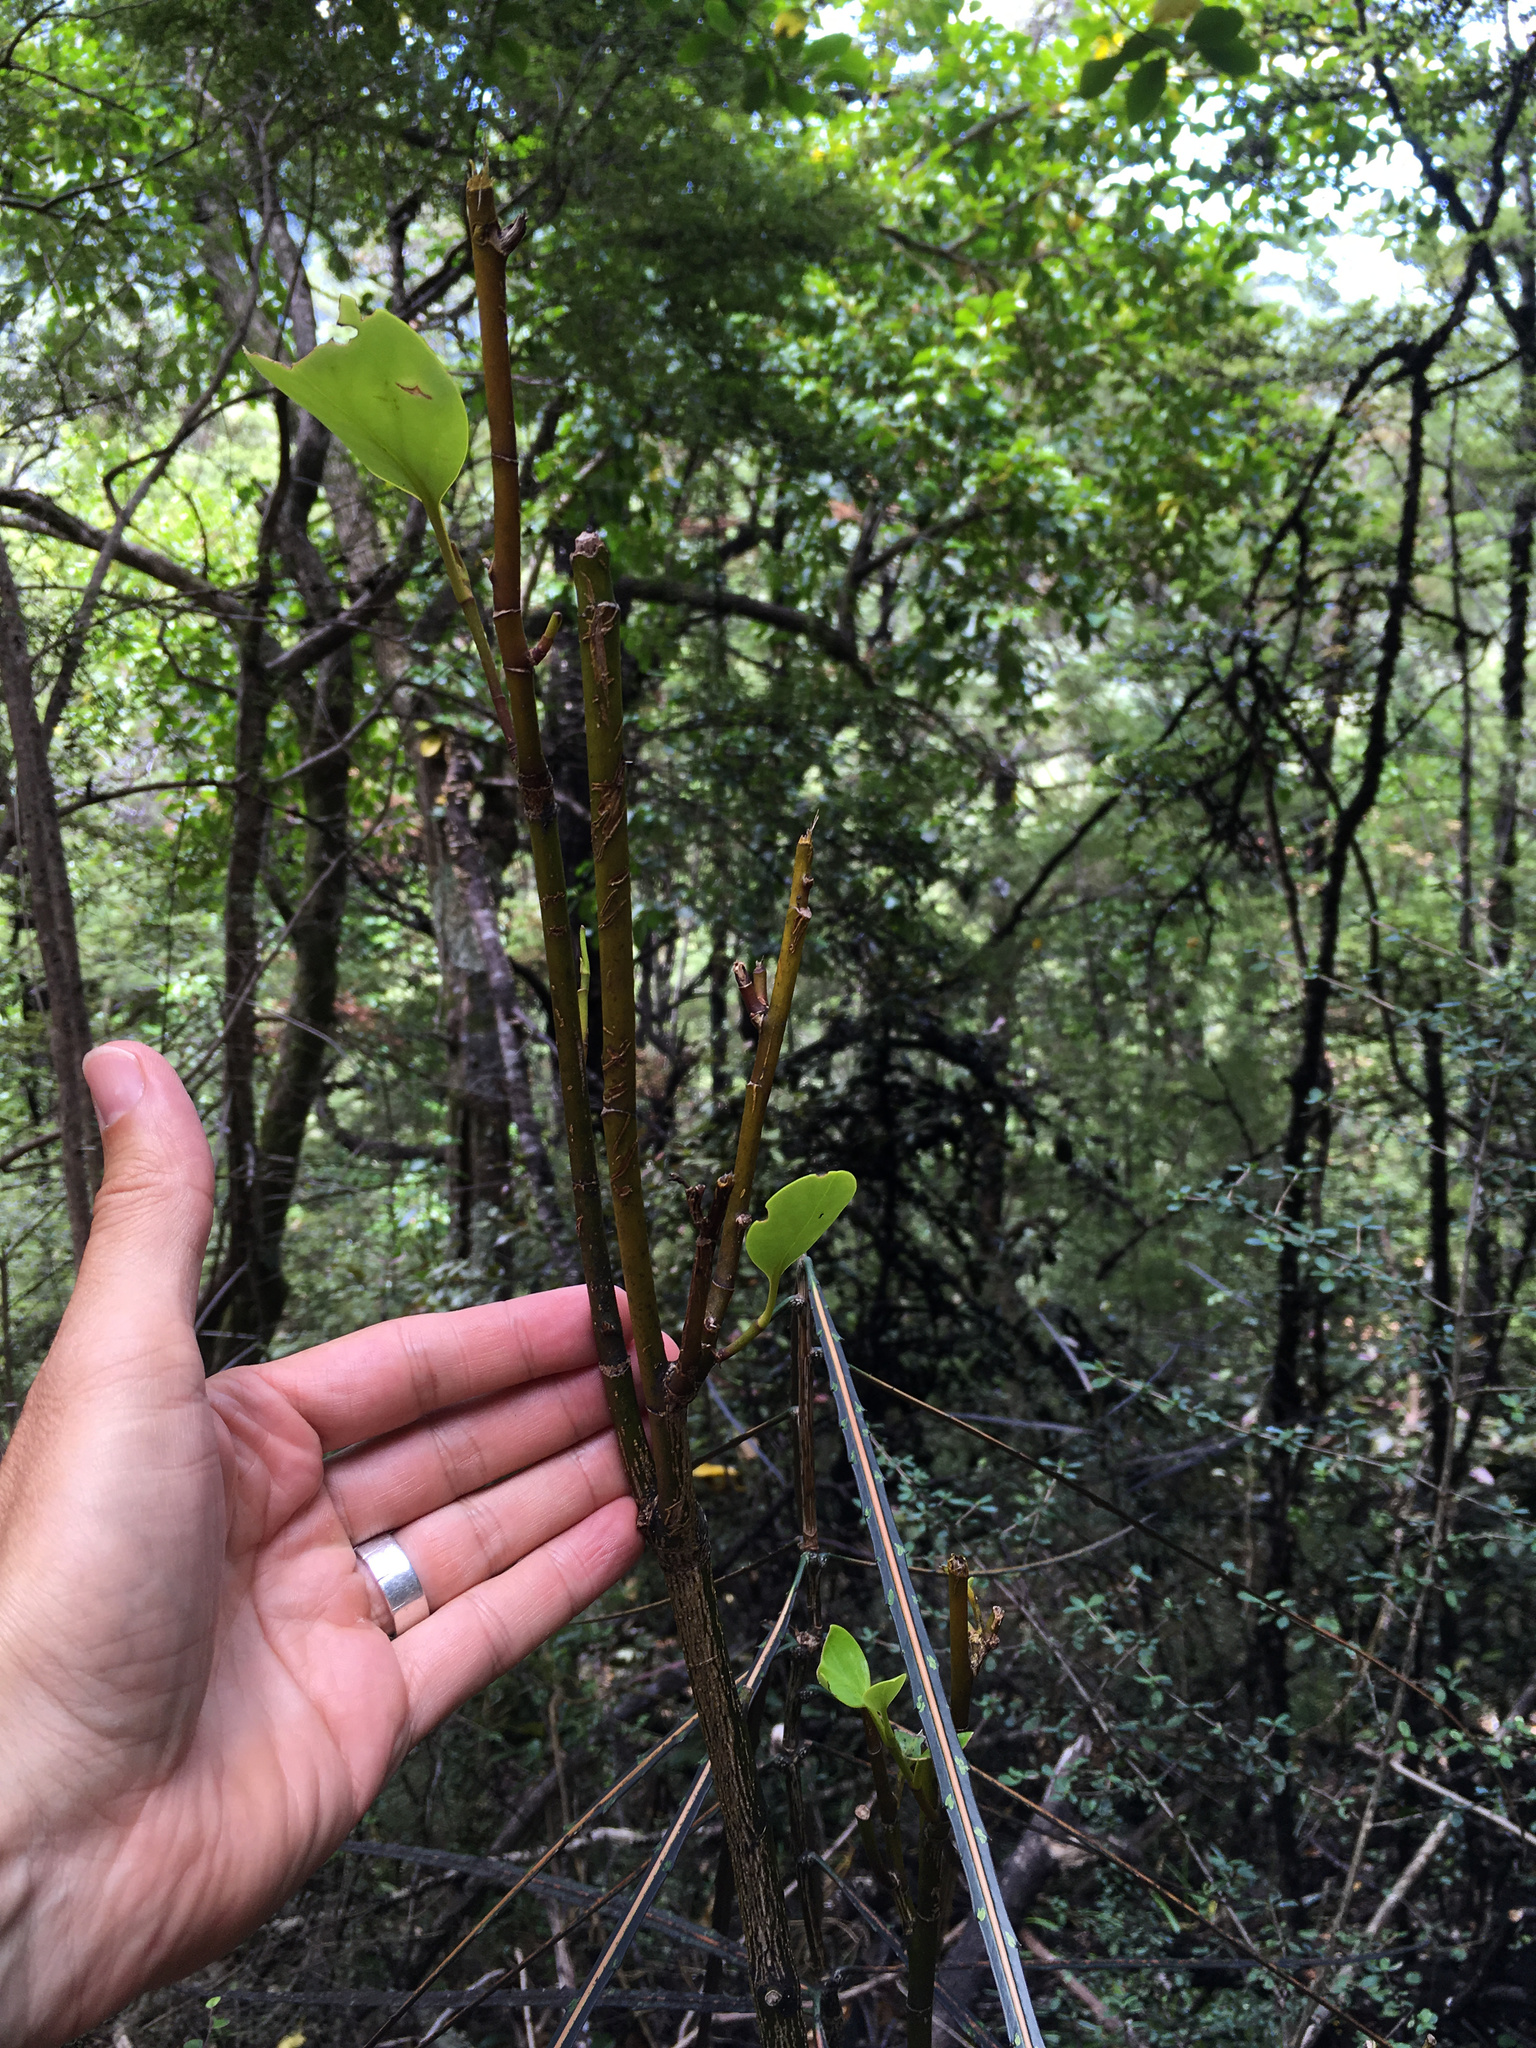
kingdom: Plantae
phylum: Tracheophyta
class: Magnoliopsida
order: Apiales
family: Griseliniaceae
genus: Griselinia
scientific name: Griselinia littoralis
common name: New zealand broadleaf
